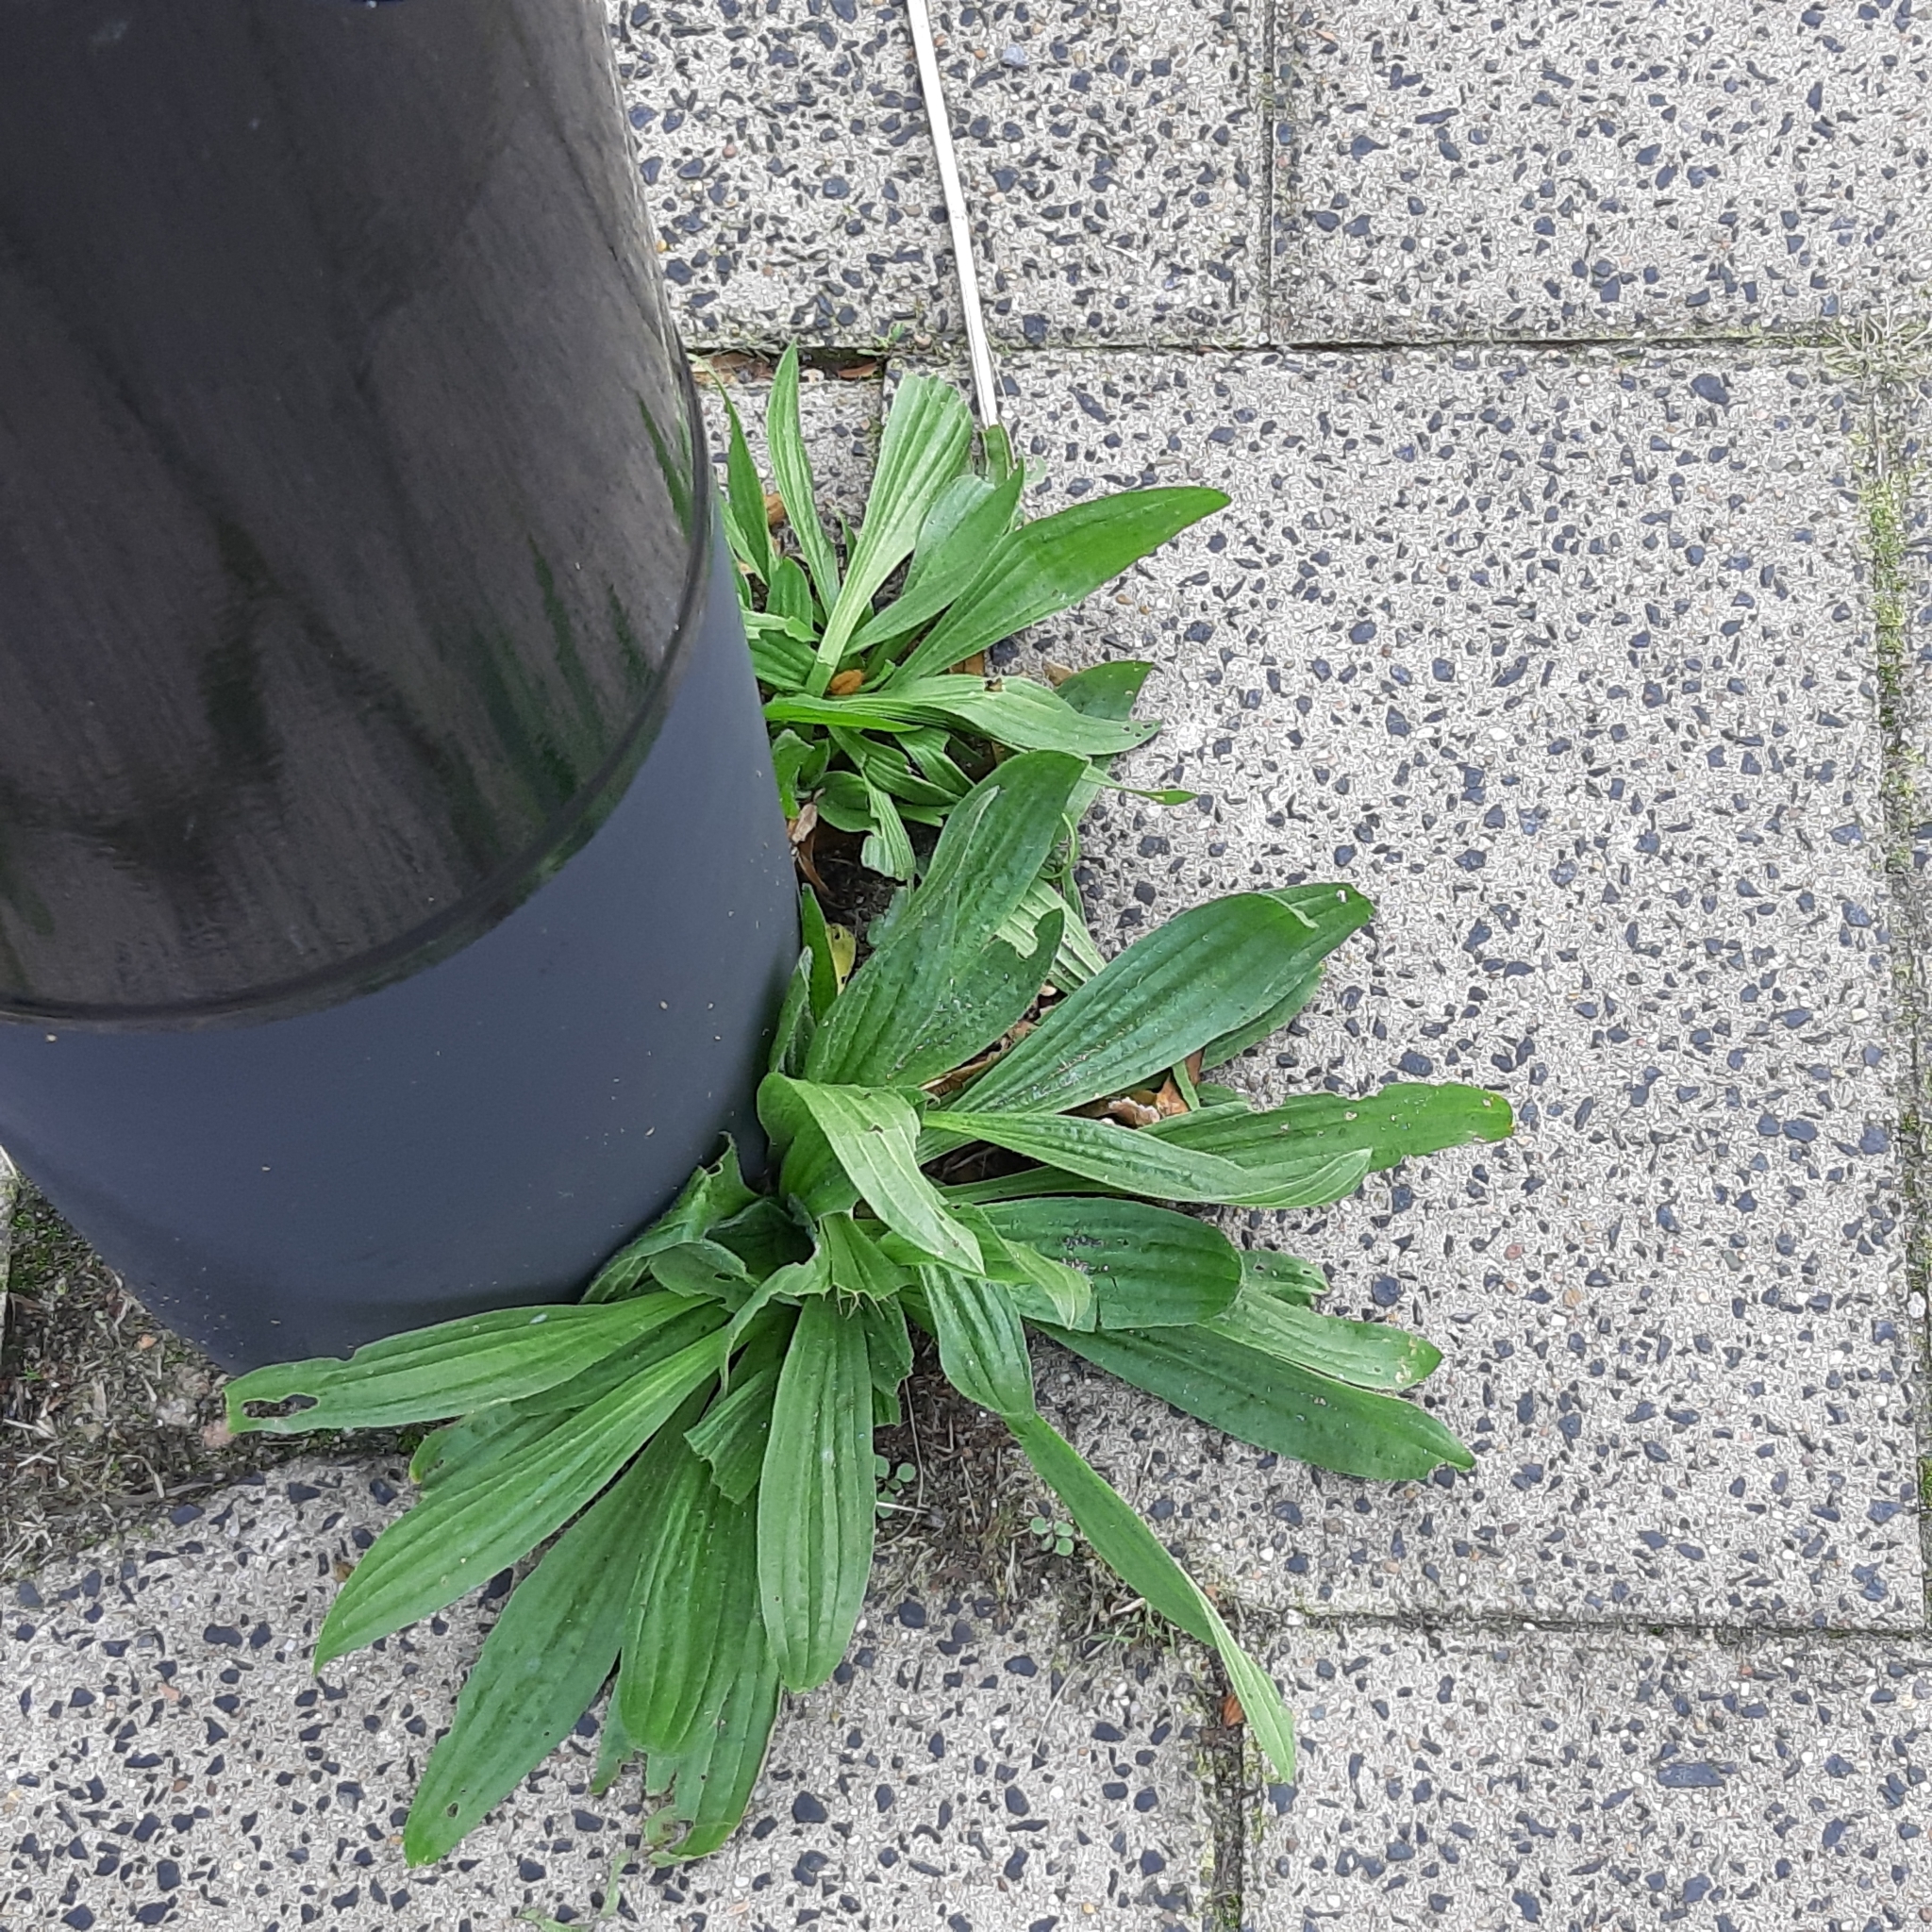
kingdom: Plantae
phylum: Tracheophyta
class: Magnoliopsida
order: Lamiales
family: Plantaginaceae
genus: Plantago
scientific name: Plantago lanceolata
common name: Ribwort plantain
